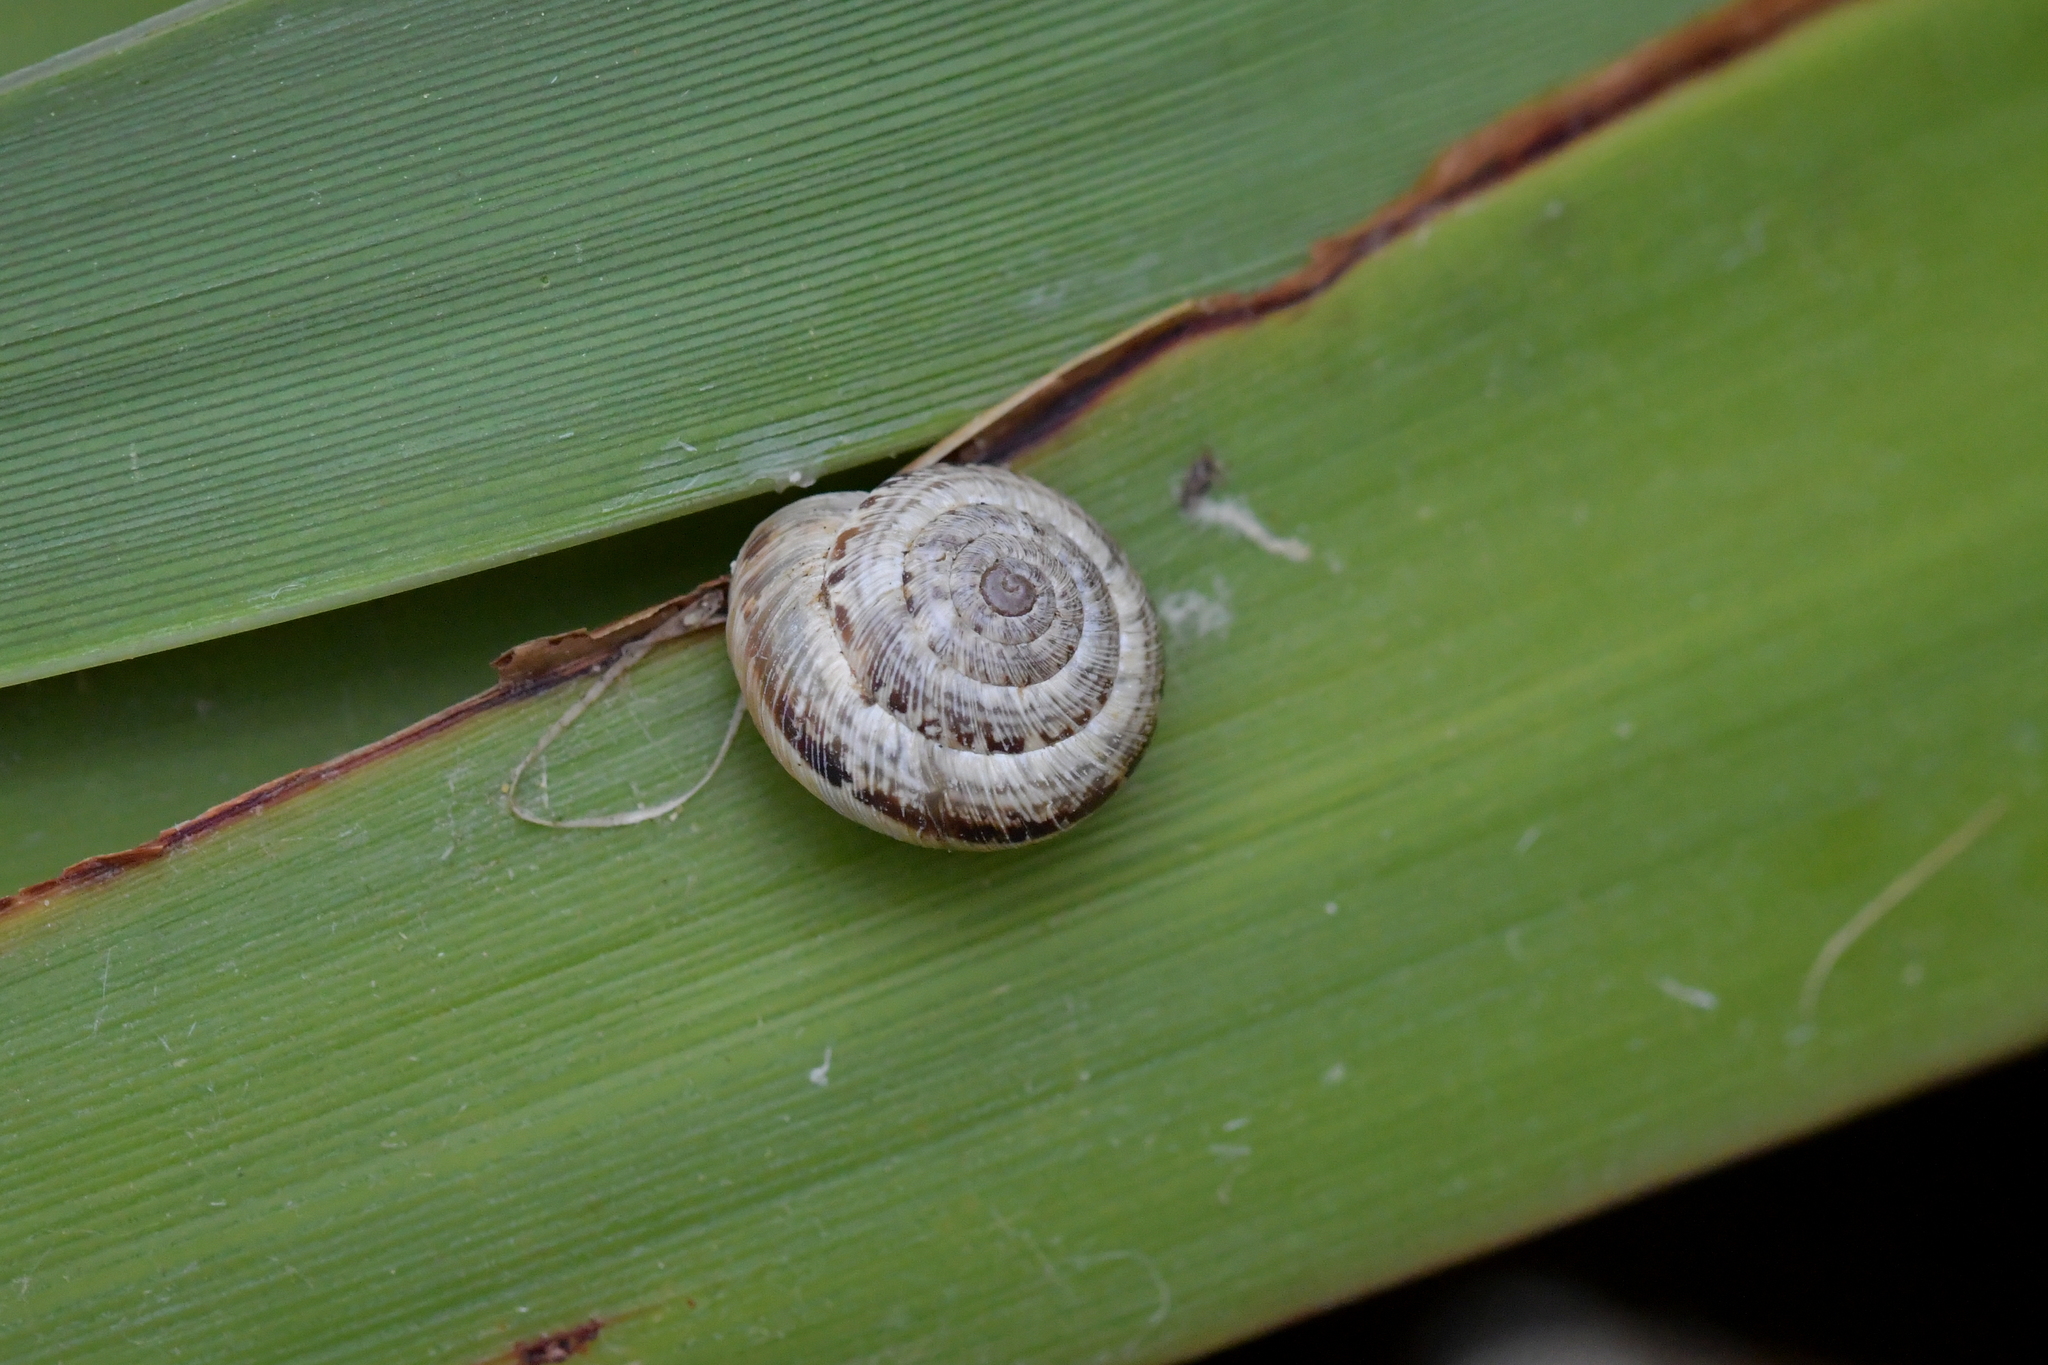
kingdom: Animalia
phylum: Mollusca
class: Gastropoda
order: Stylommatophora
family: Geomitridae
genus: Xeroplexa
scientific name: Xeroplexa intersecta
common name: Wrinkled snail
